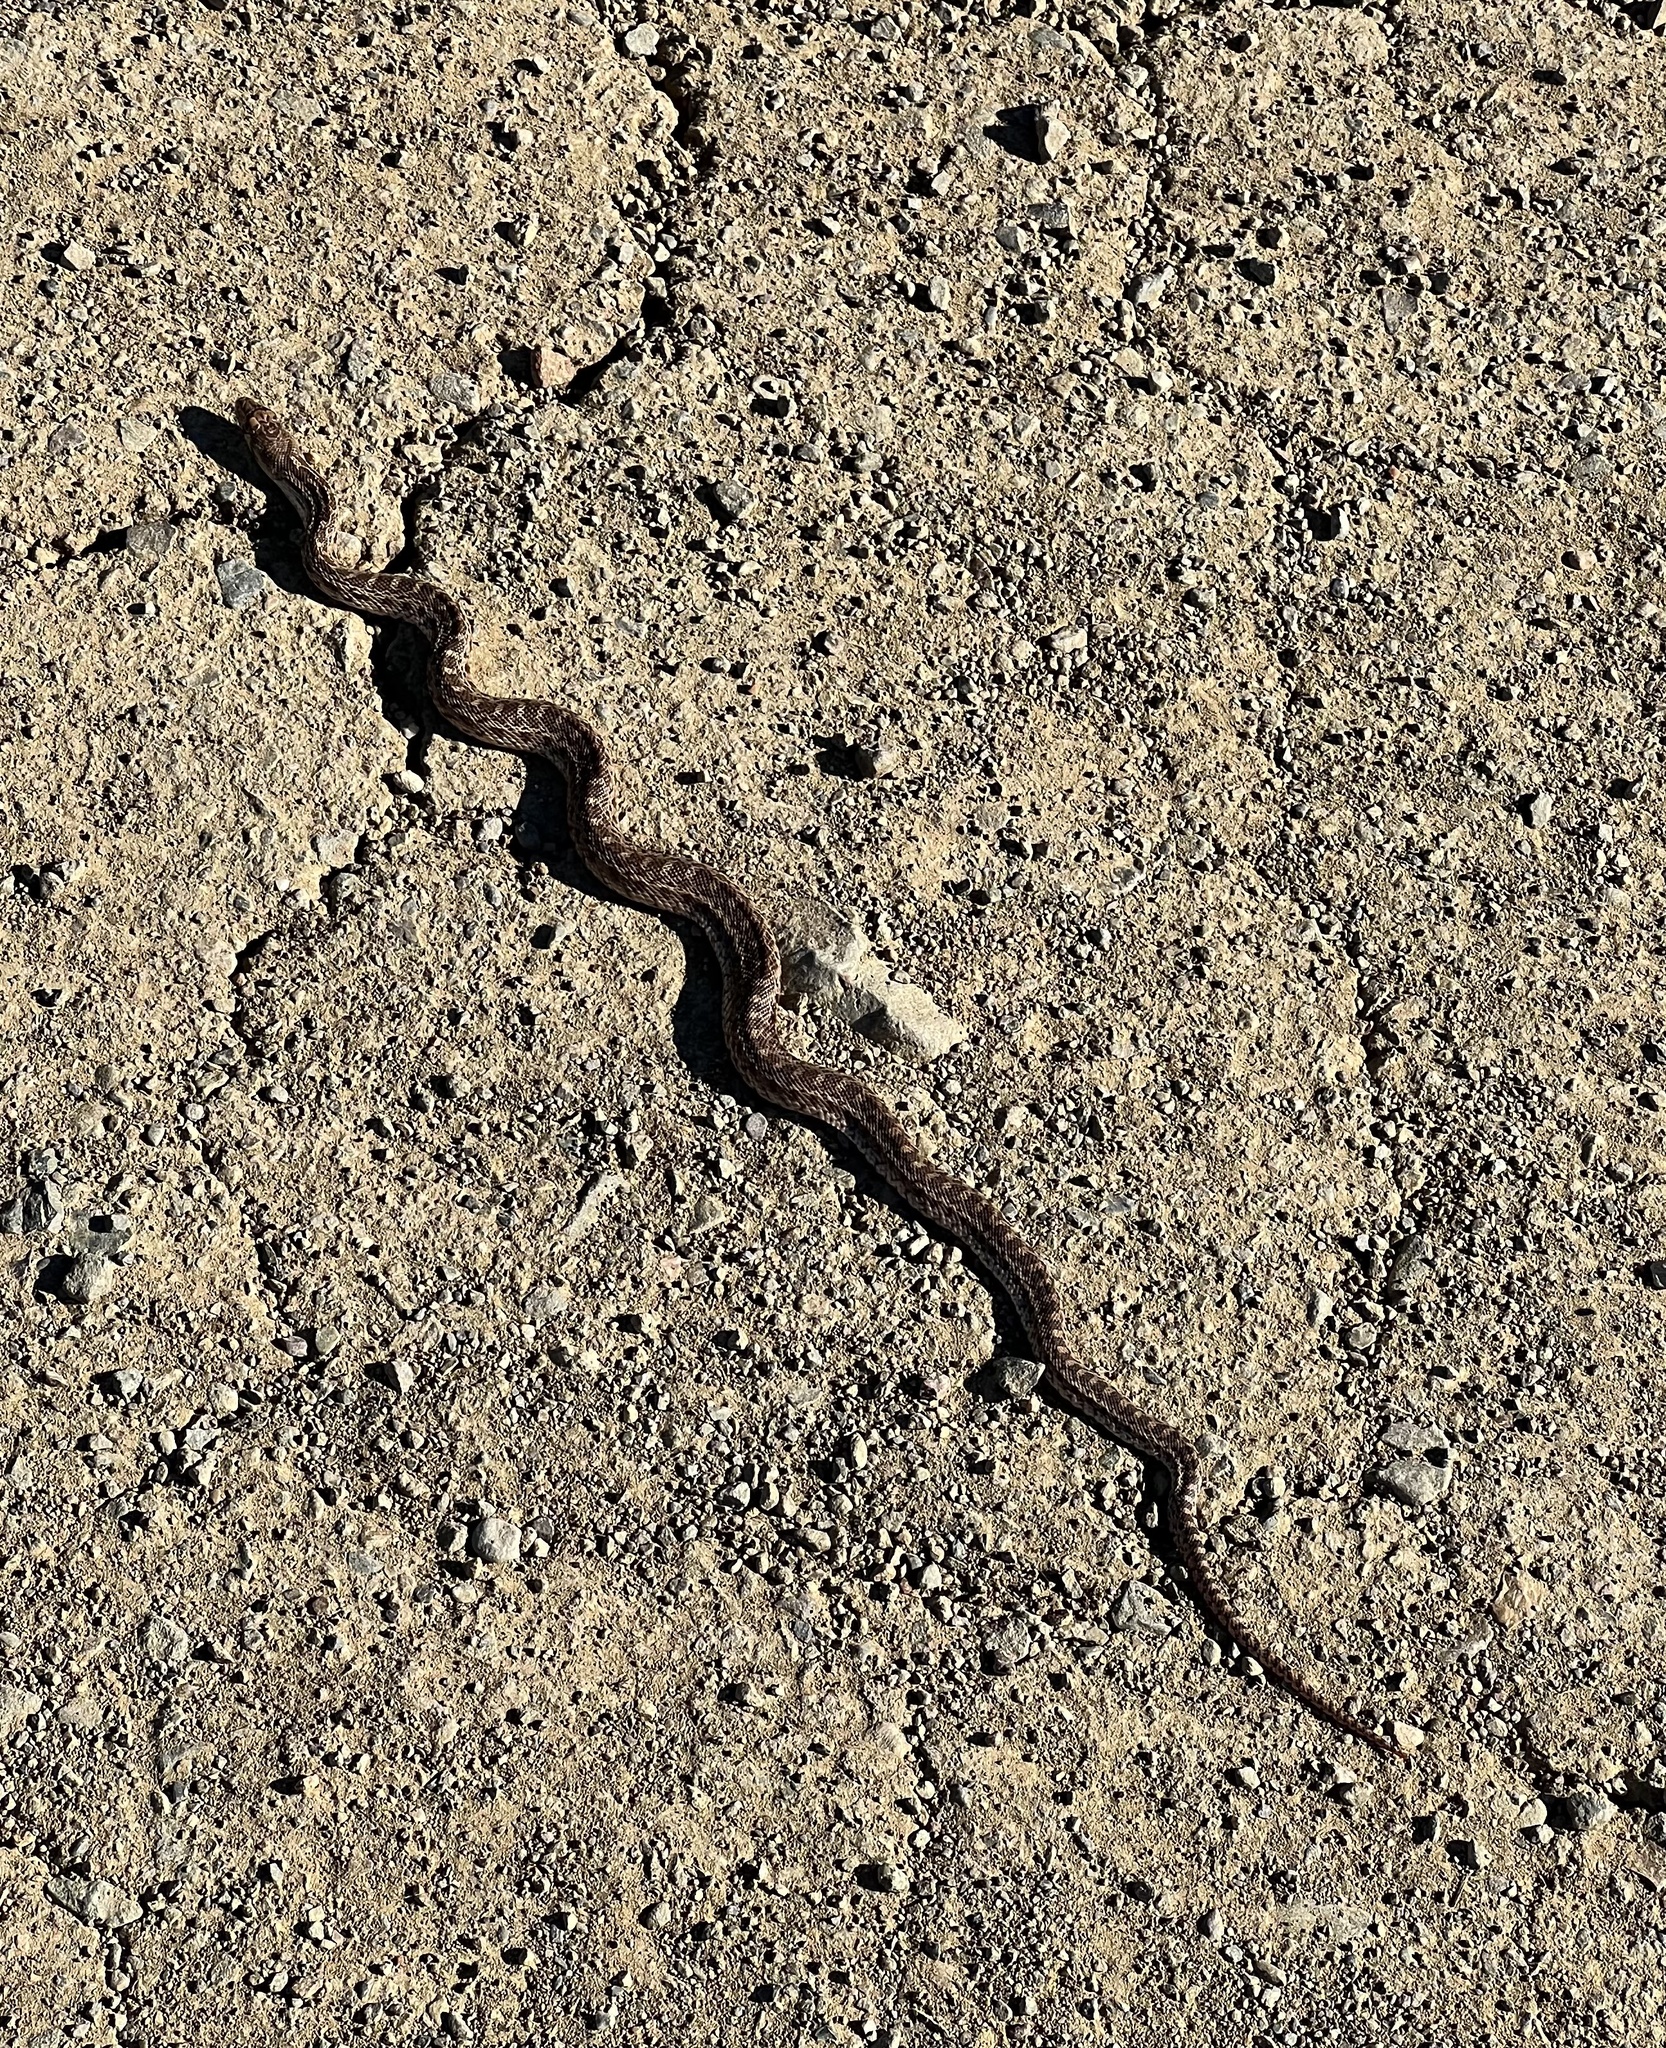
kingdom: Animalia
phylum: Chordata
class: Squamata
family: Colubridae
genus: Pituophis
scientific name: Pituophis catenifer
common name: Gopher snake
